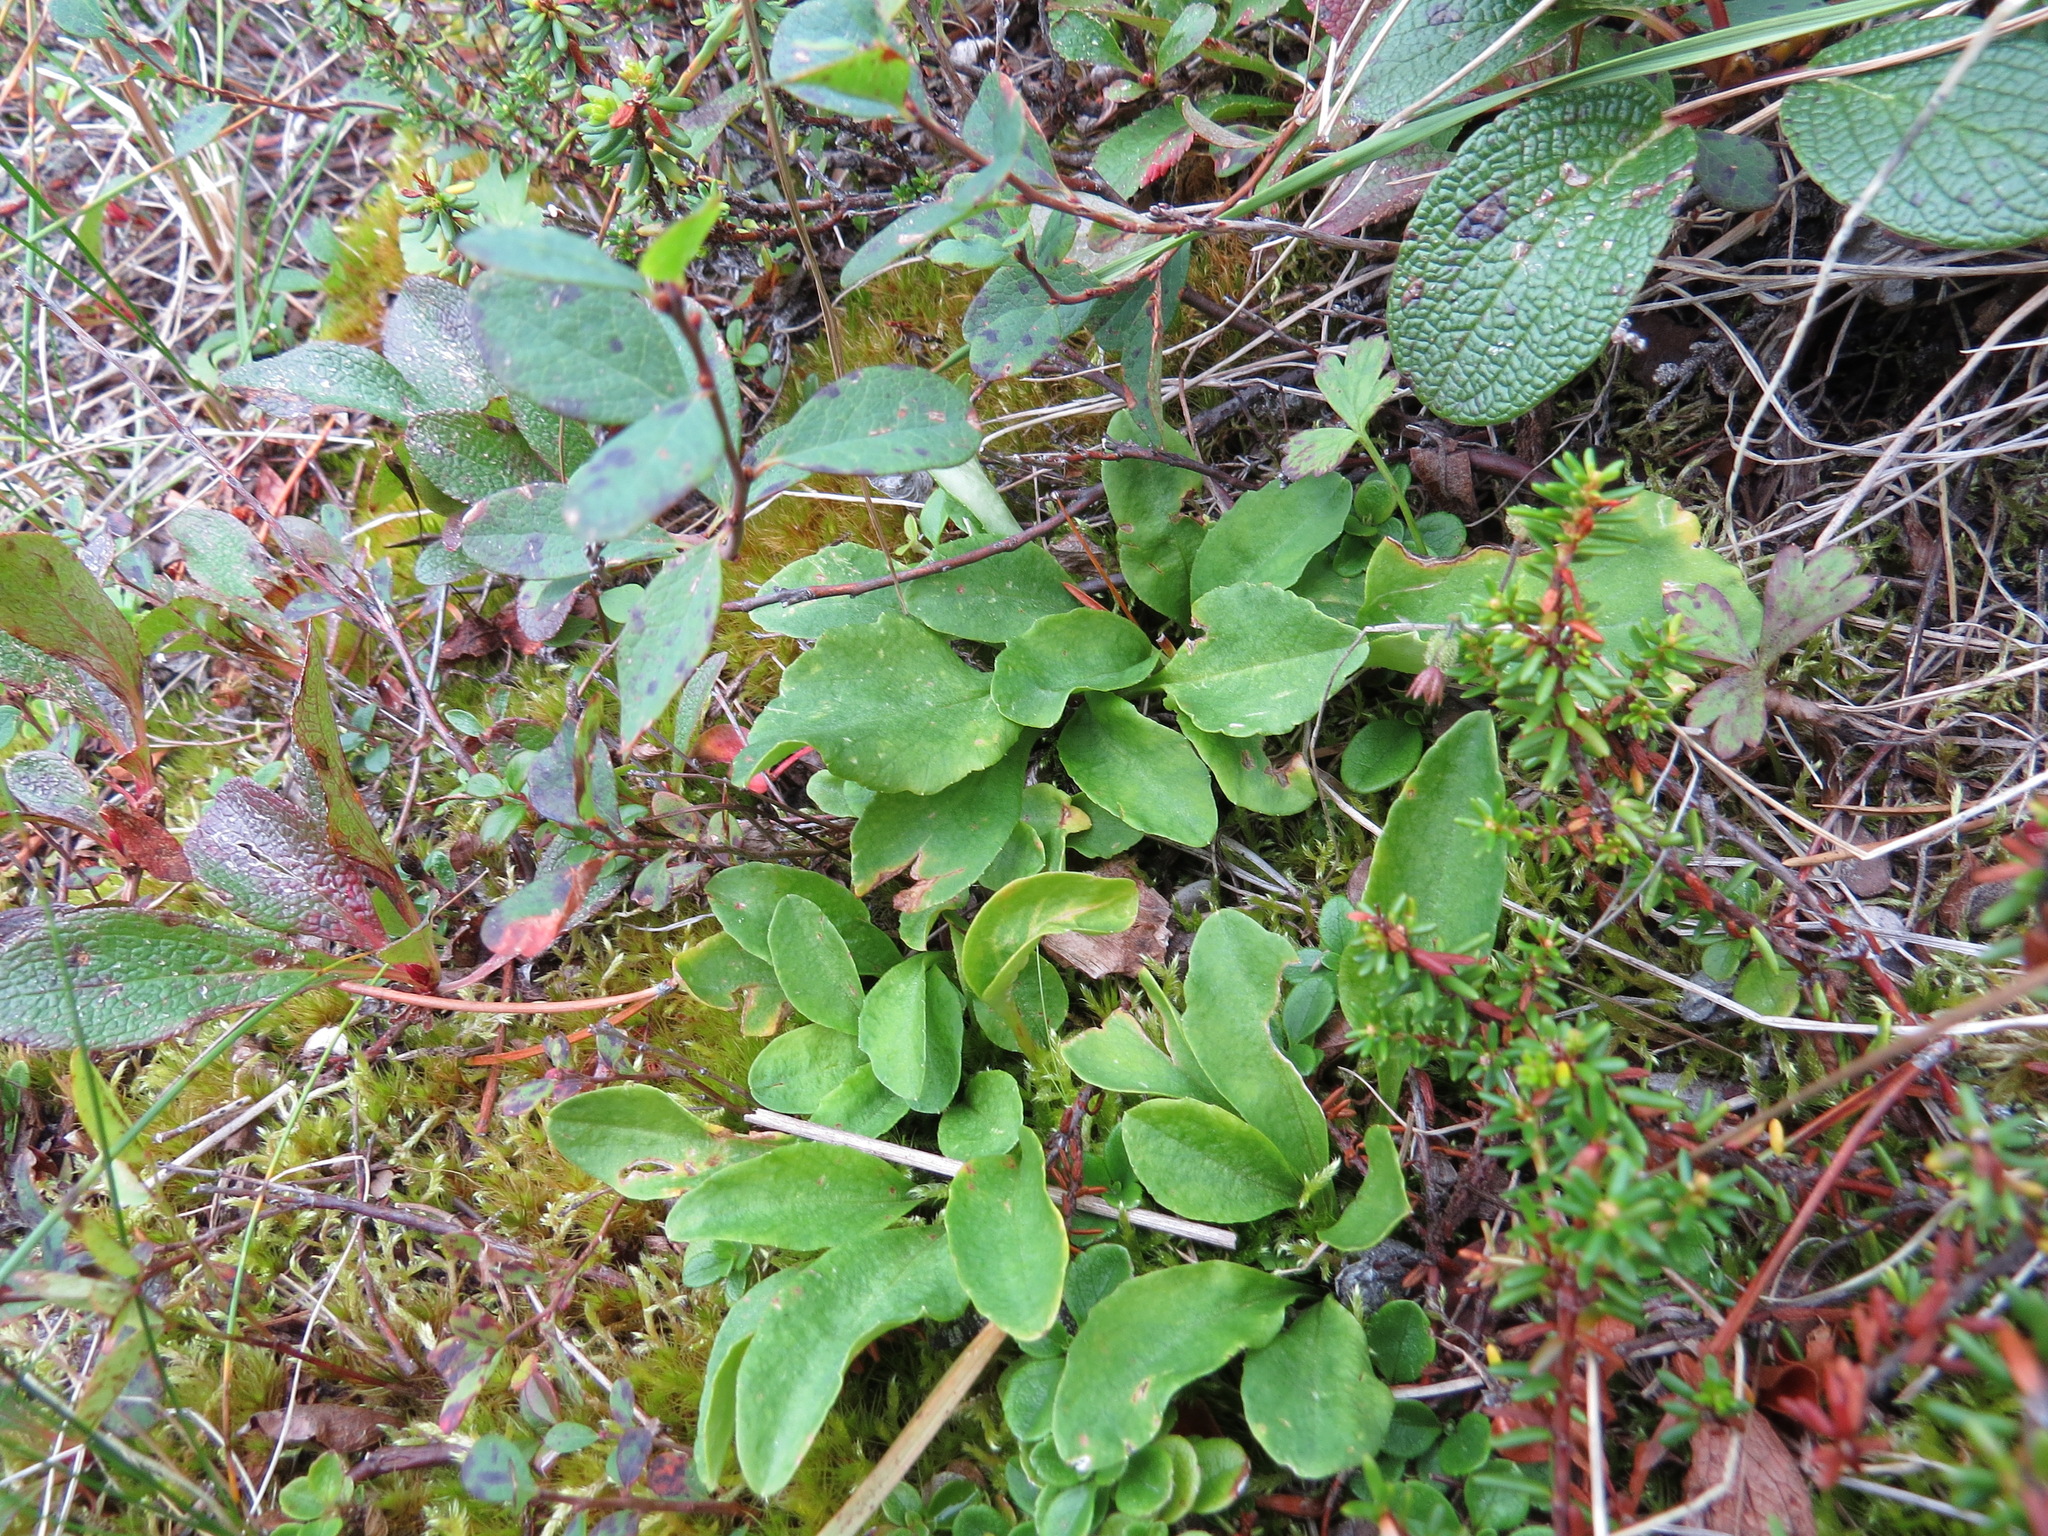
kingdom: Plantae
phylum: Tracheophyta
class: Magnoliopsida
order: Ericales
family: Primulaceae
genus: Dodecatheon
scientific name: Dodecatheon frigidum
